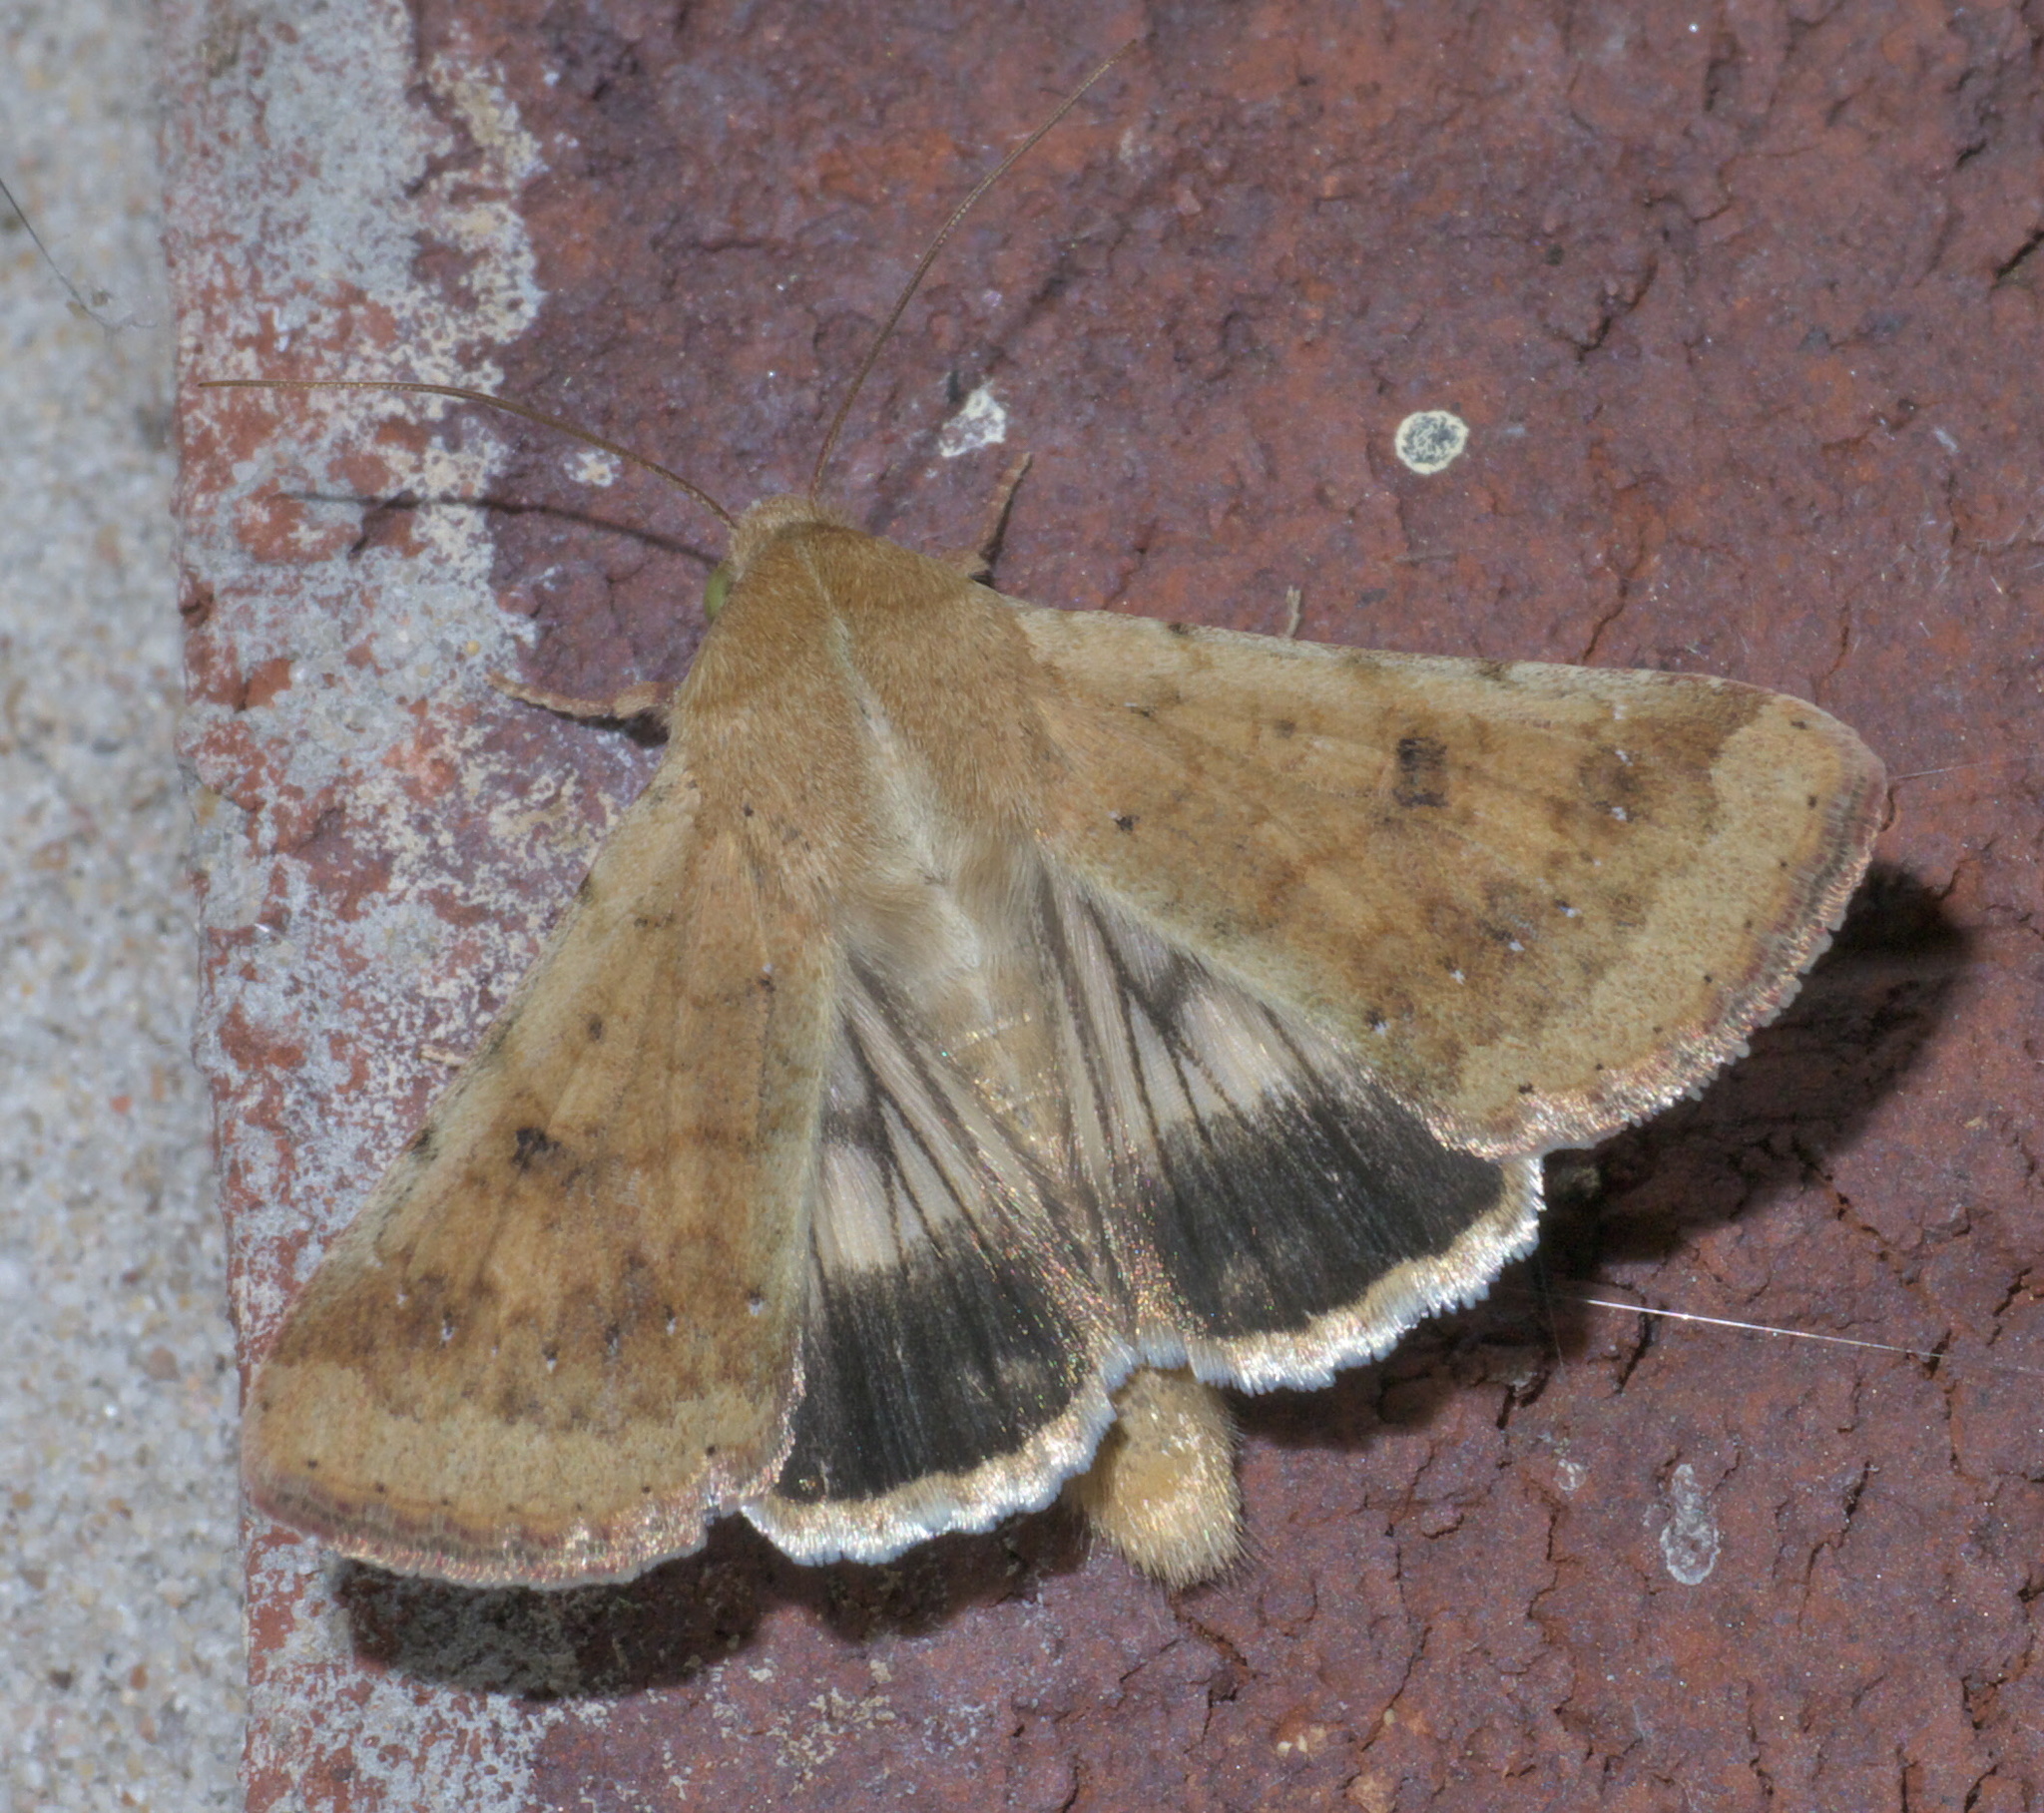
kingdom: Animalia
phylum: Arthropoda
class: Insecta
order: Lepidoptera
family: Noctuidae
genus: Helicoverpa
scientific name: Helicoverpa zea
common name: Bollworm
